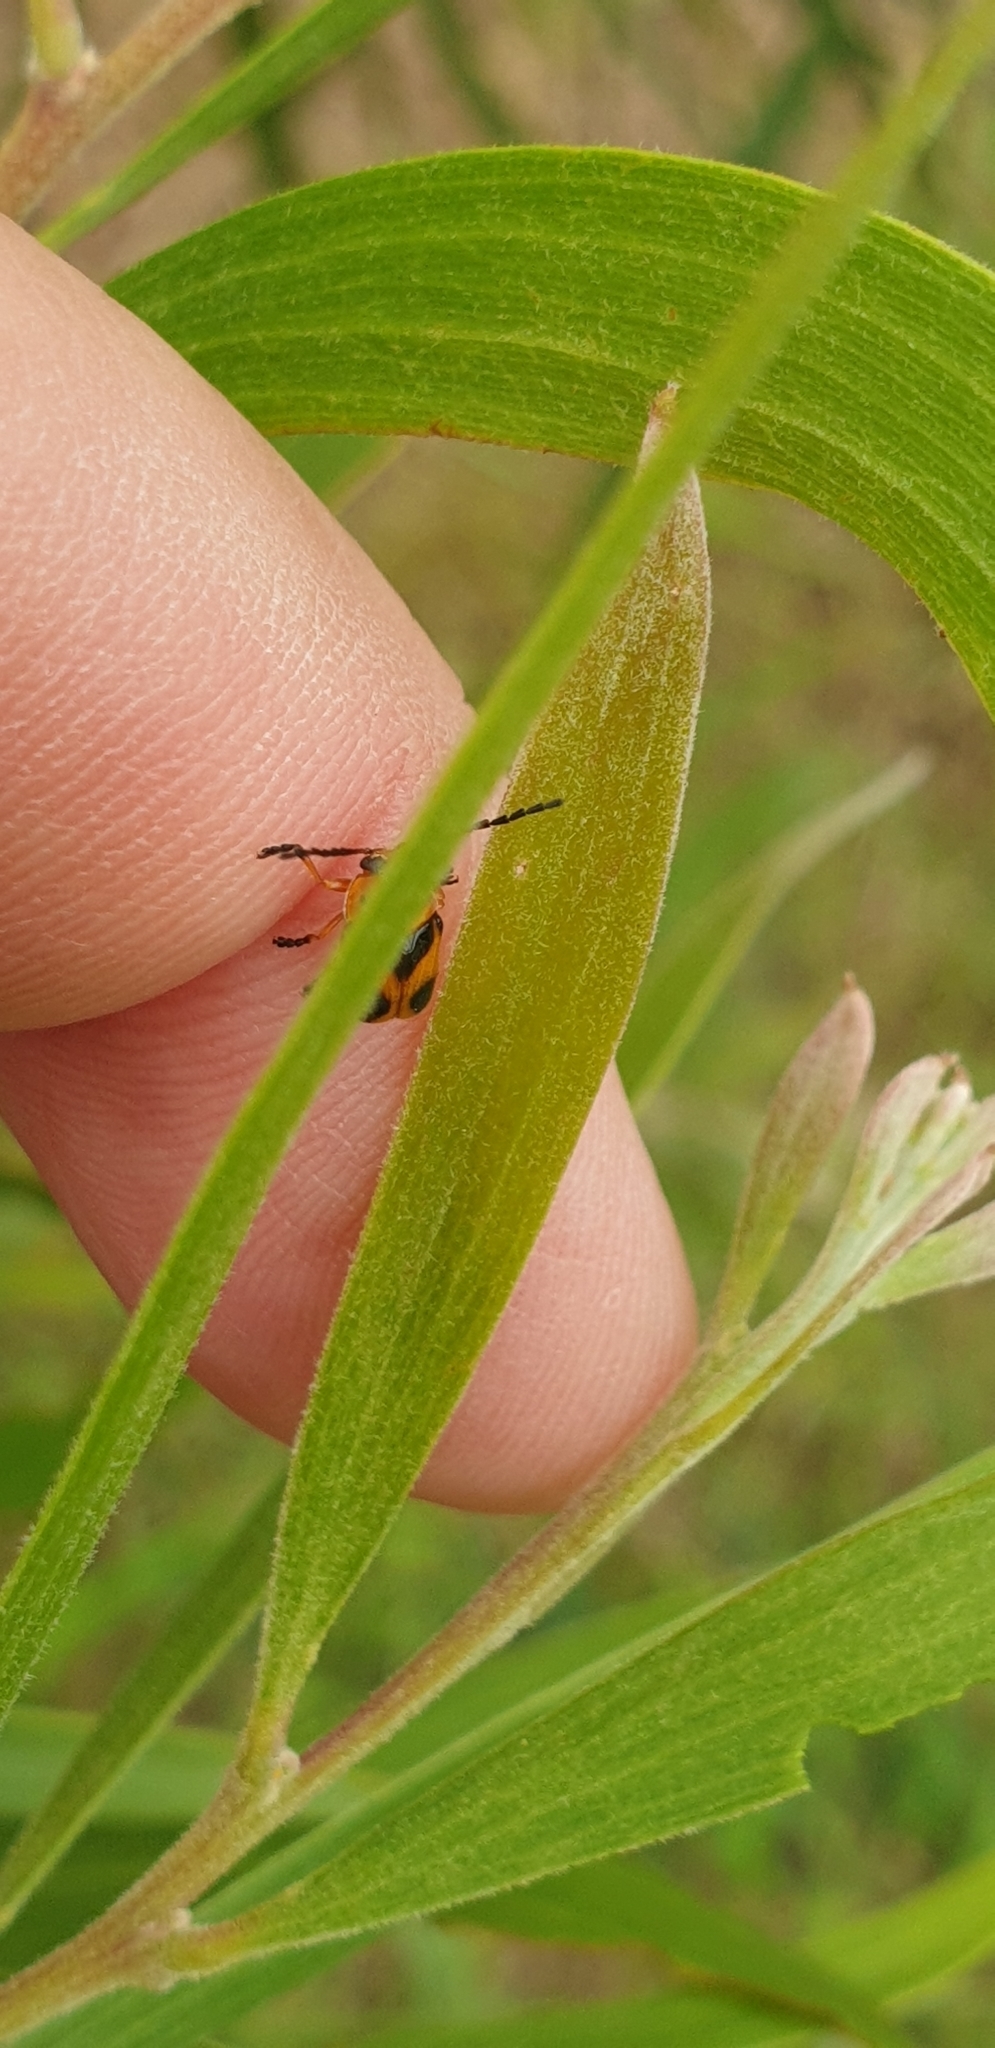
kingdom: Animalia
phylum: Arthropoda
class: Insecta
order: Coleoptera
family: Chrysomelidae
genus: Aporocera
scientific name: Aporocera
